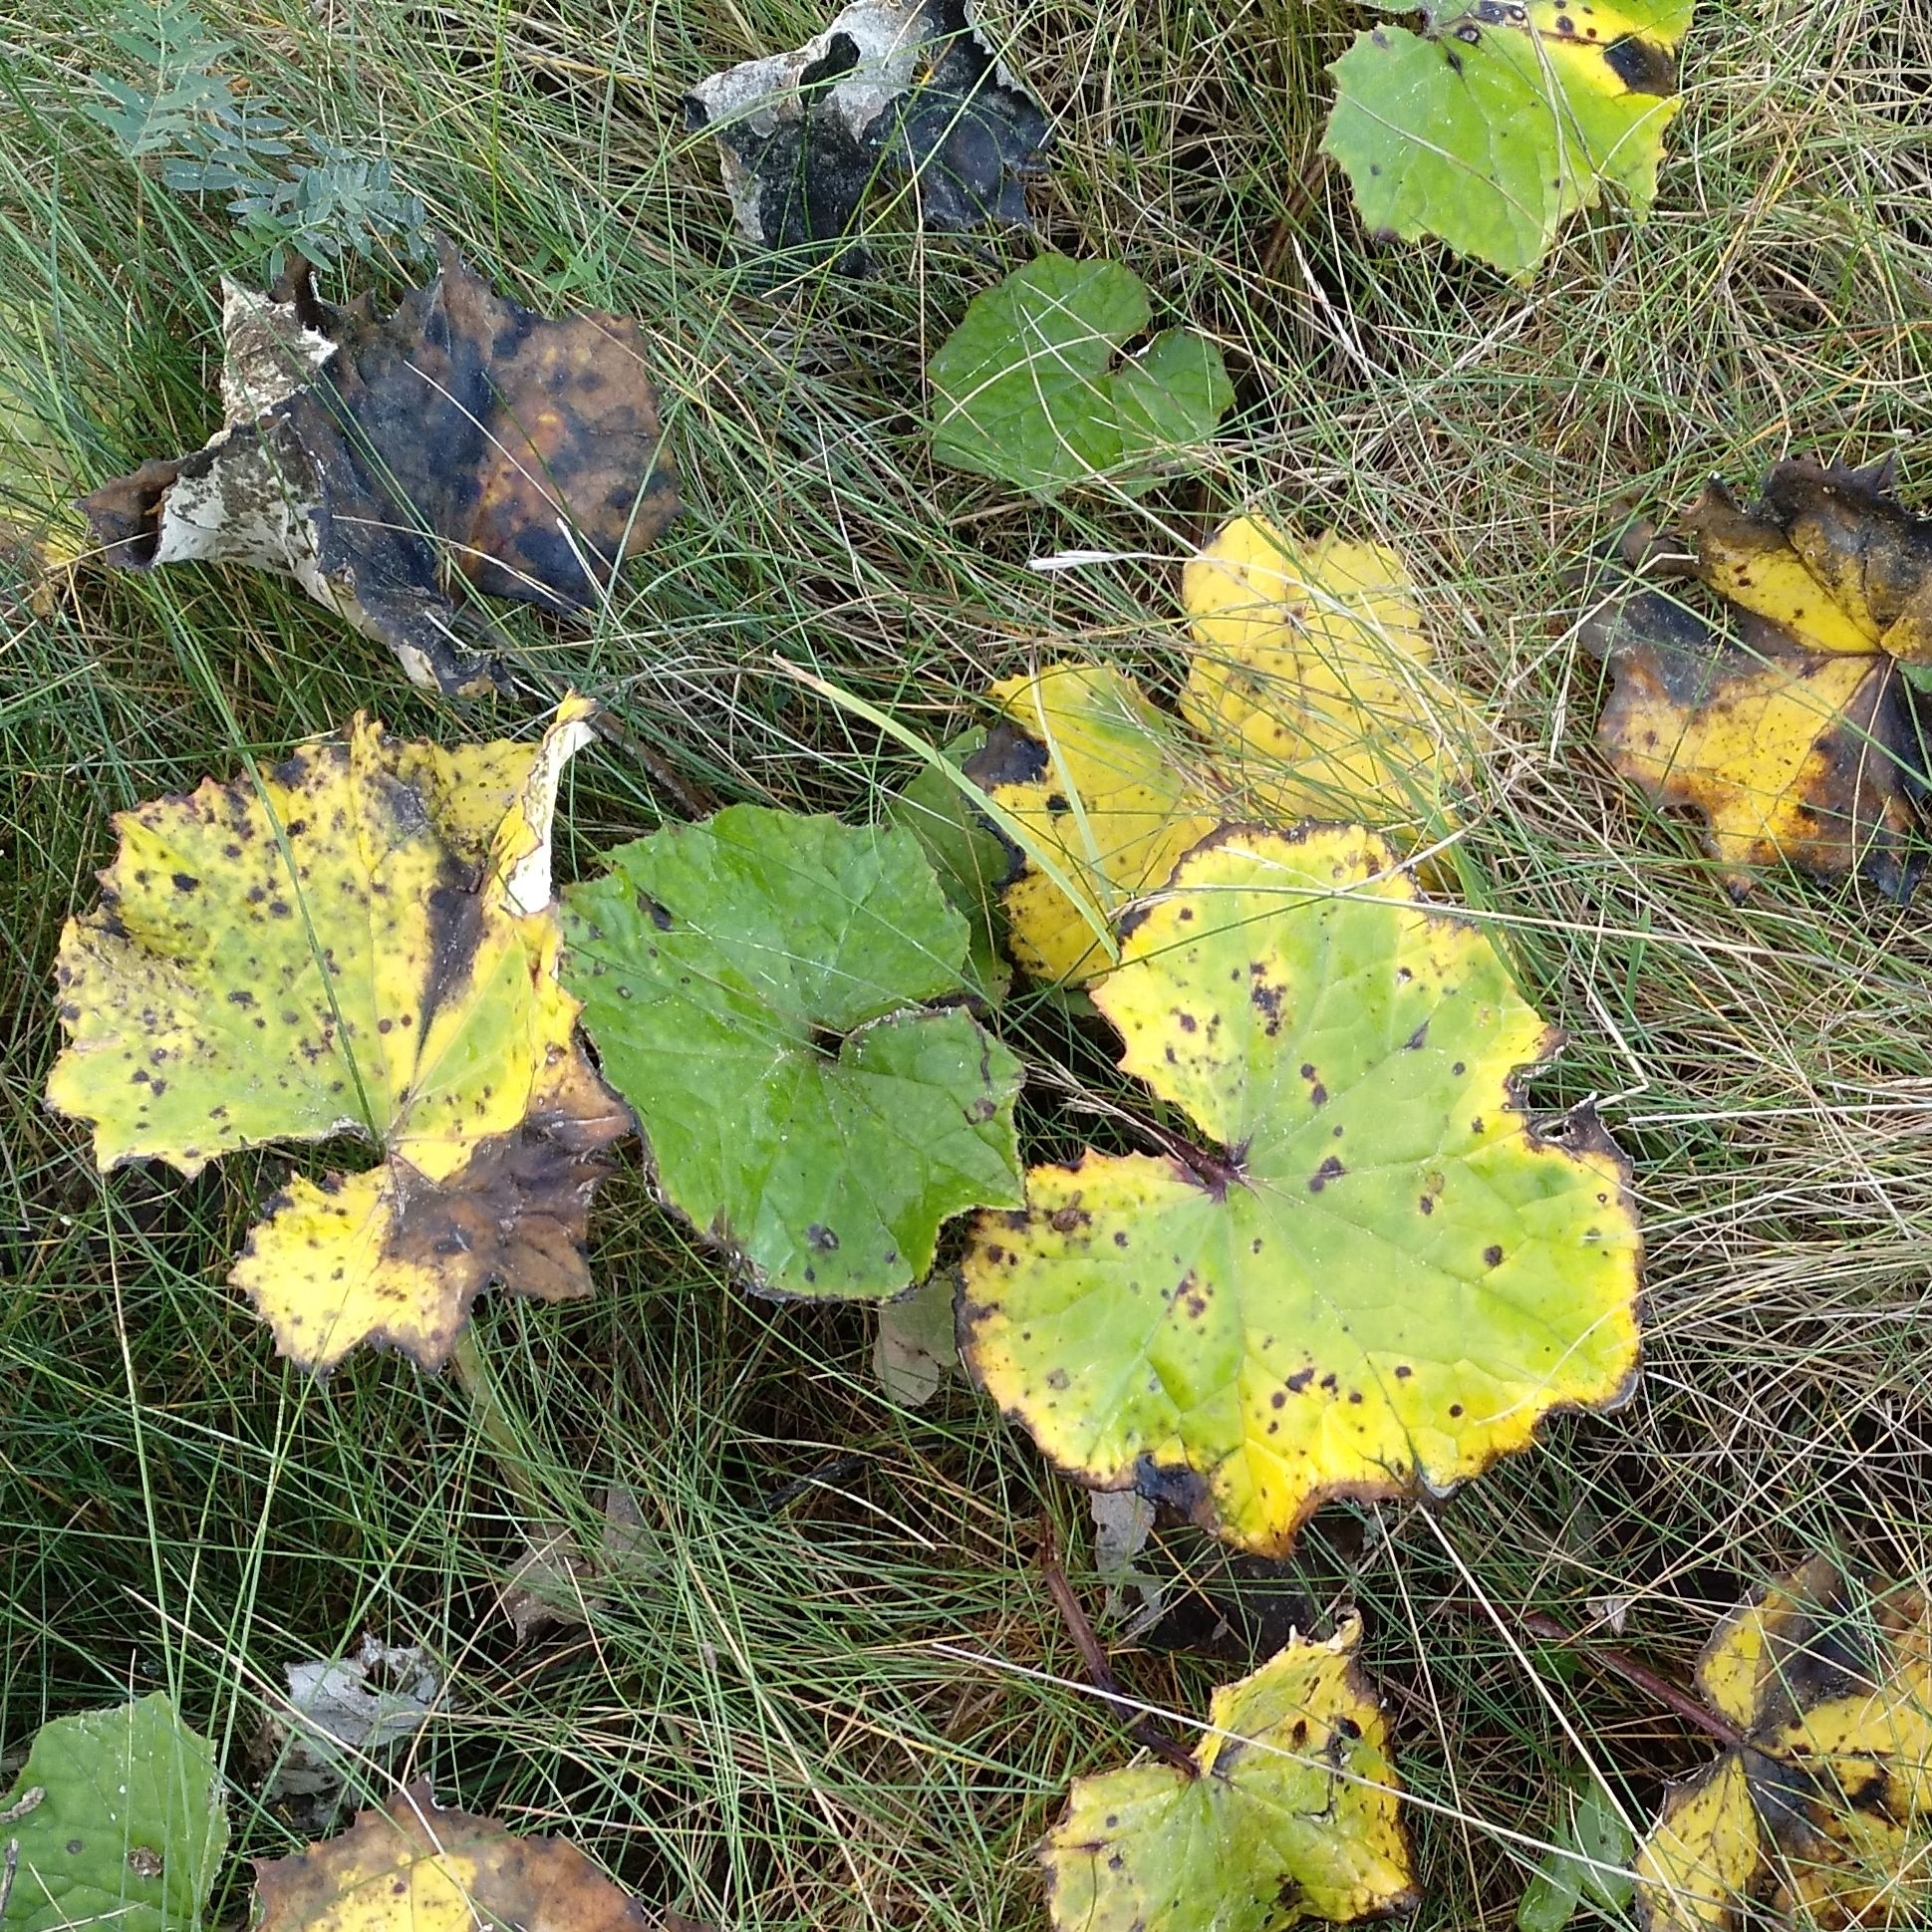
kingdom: Plantae
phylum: Tracheophyta
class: Magnoliopsida
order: Asterales
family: Asteraceae
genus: Tussilago
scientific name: Tussilago farfara
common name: Coltsfoot
